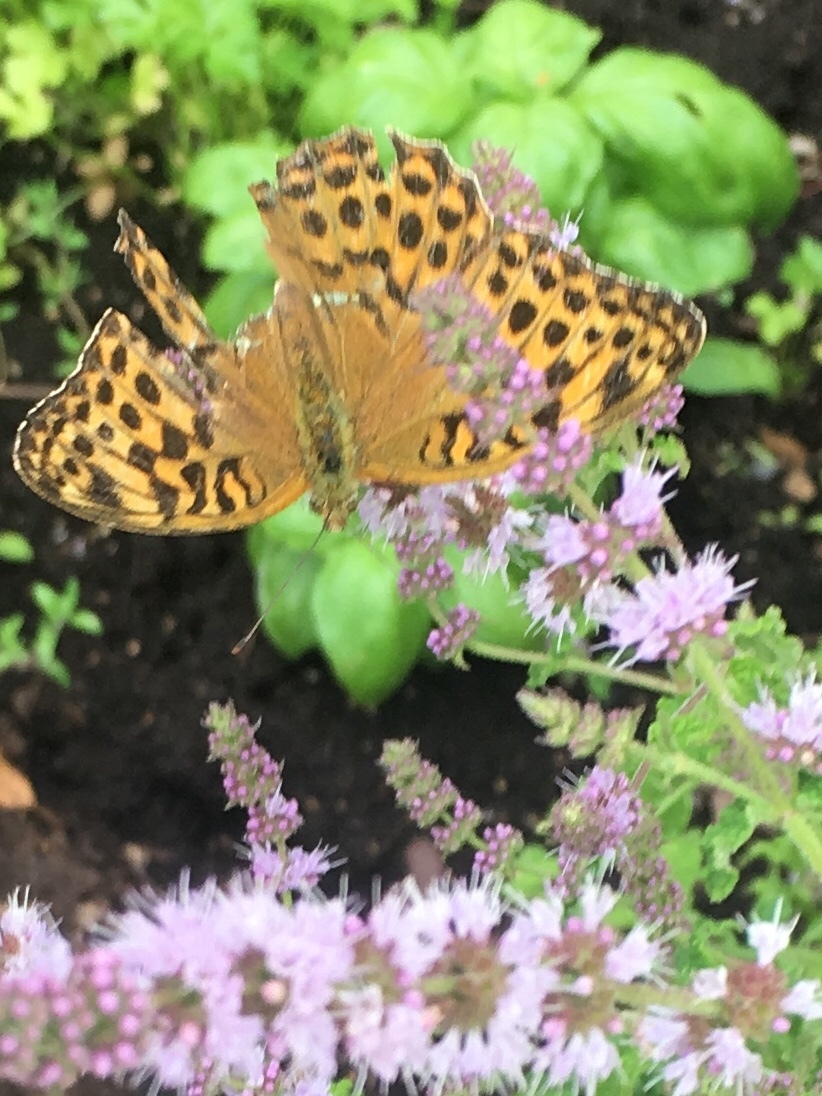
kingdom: Animalia
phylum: Arthropoda
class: Insecta
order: Lepidoptera
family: Nymphalidae
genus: Argynnis
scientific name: Argynnis paphia
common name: Silver-washed fritillary
